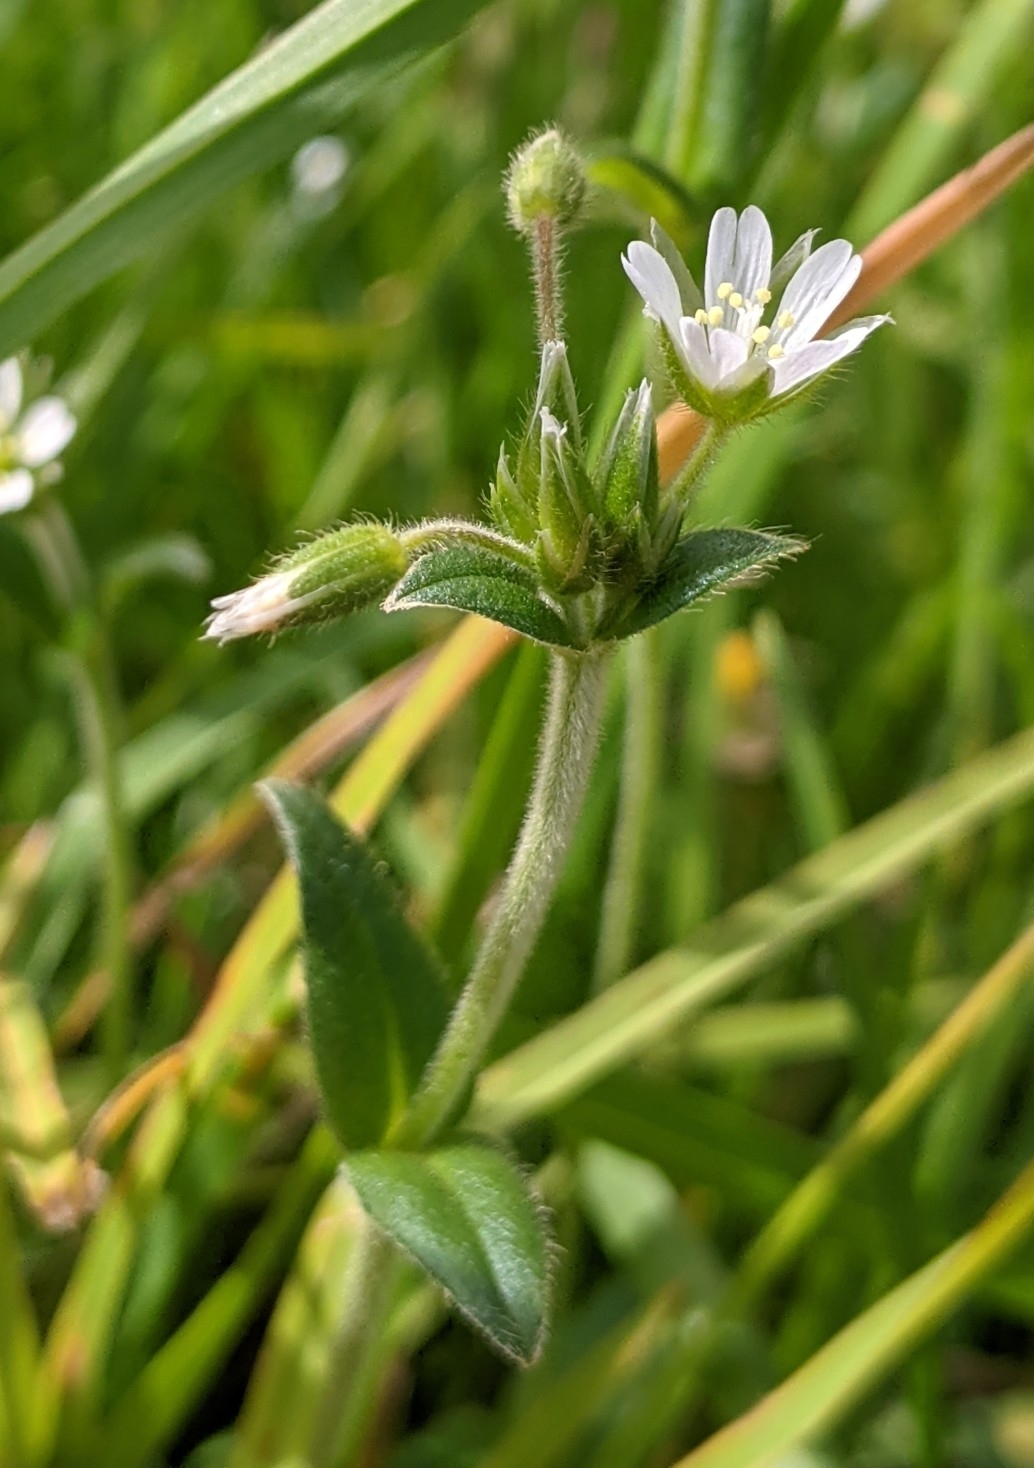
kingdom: Plantae
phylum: Tracheophyta
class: Magnoliopsida
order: Caryophyllales
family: Caryophyllaceae
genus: Cerastium
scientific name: Cerastium fontanum
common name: Common mouse-ear
